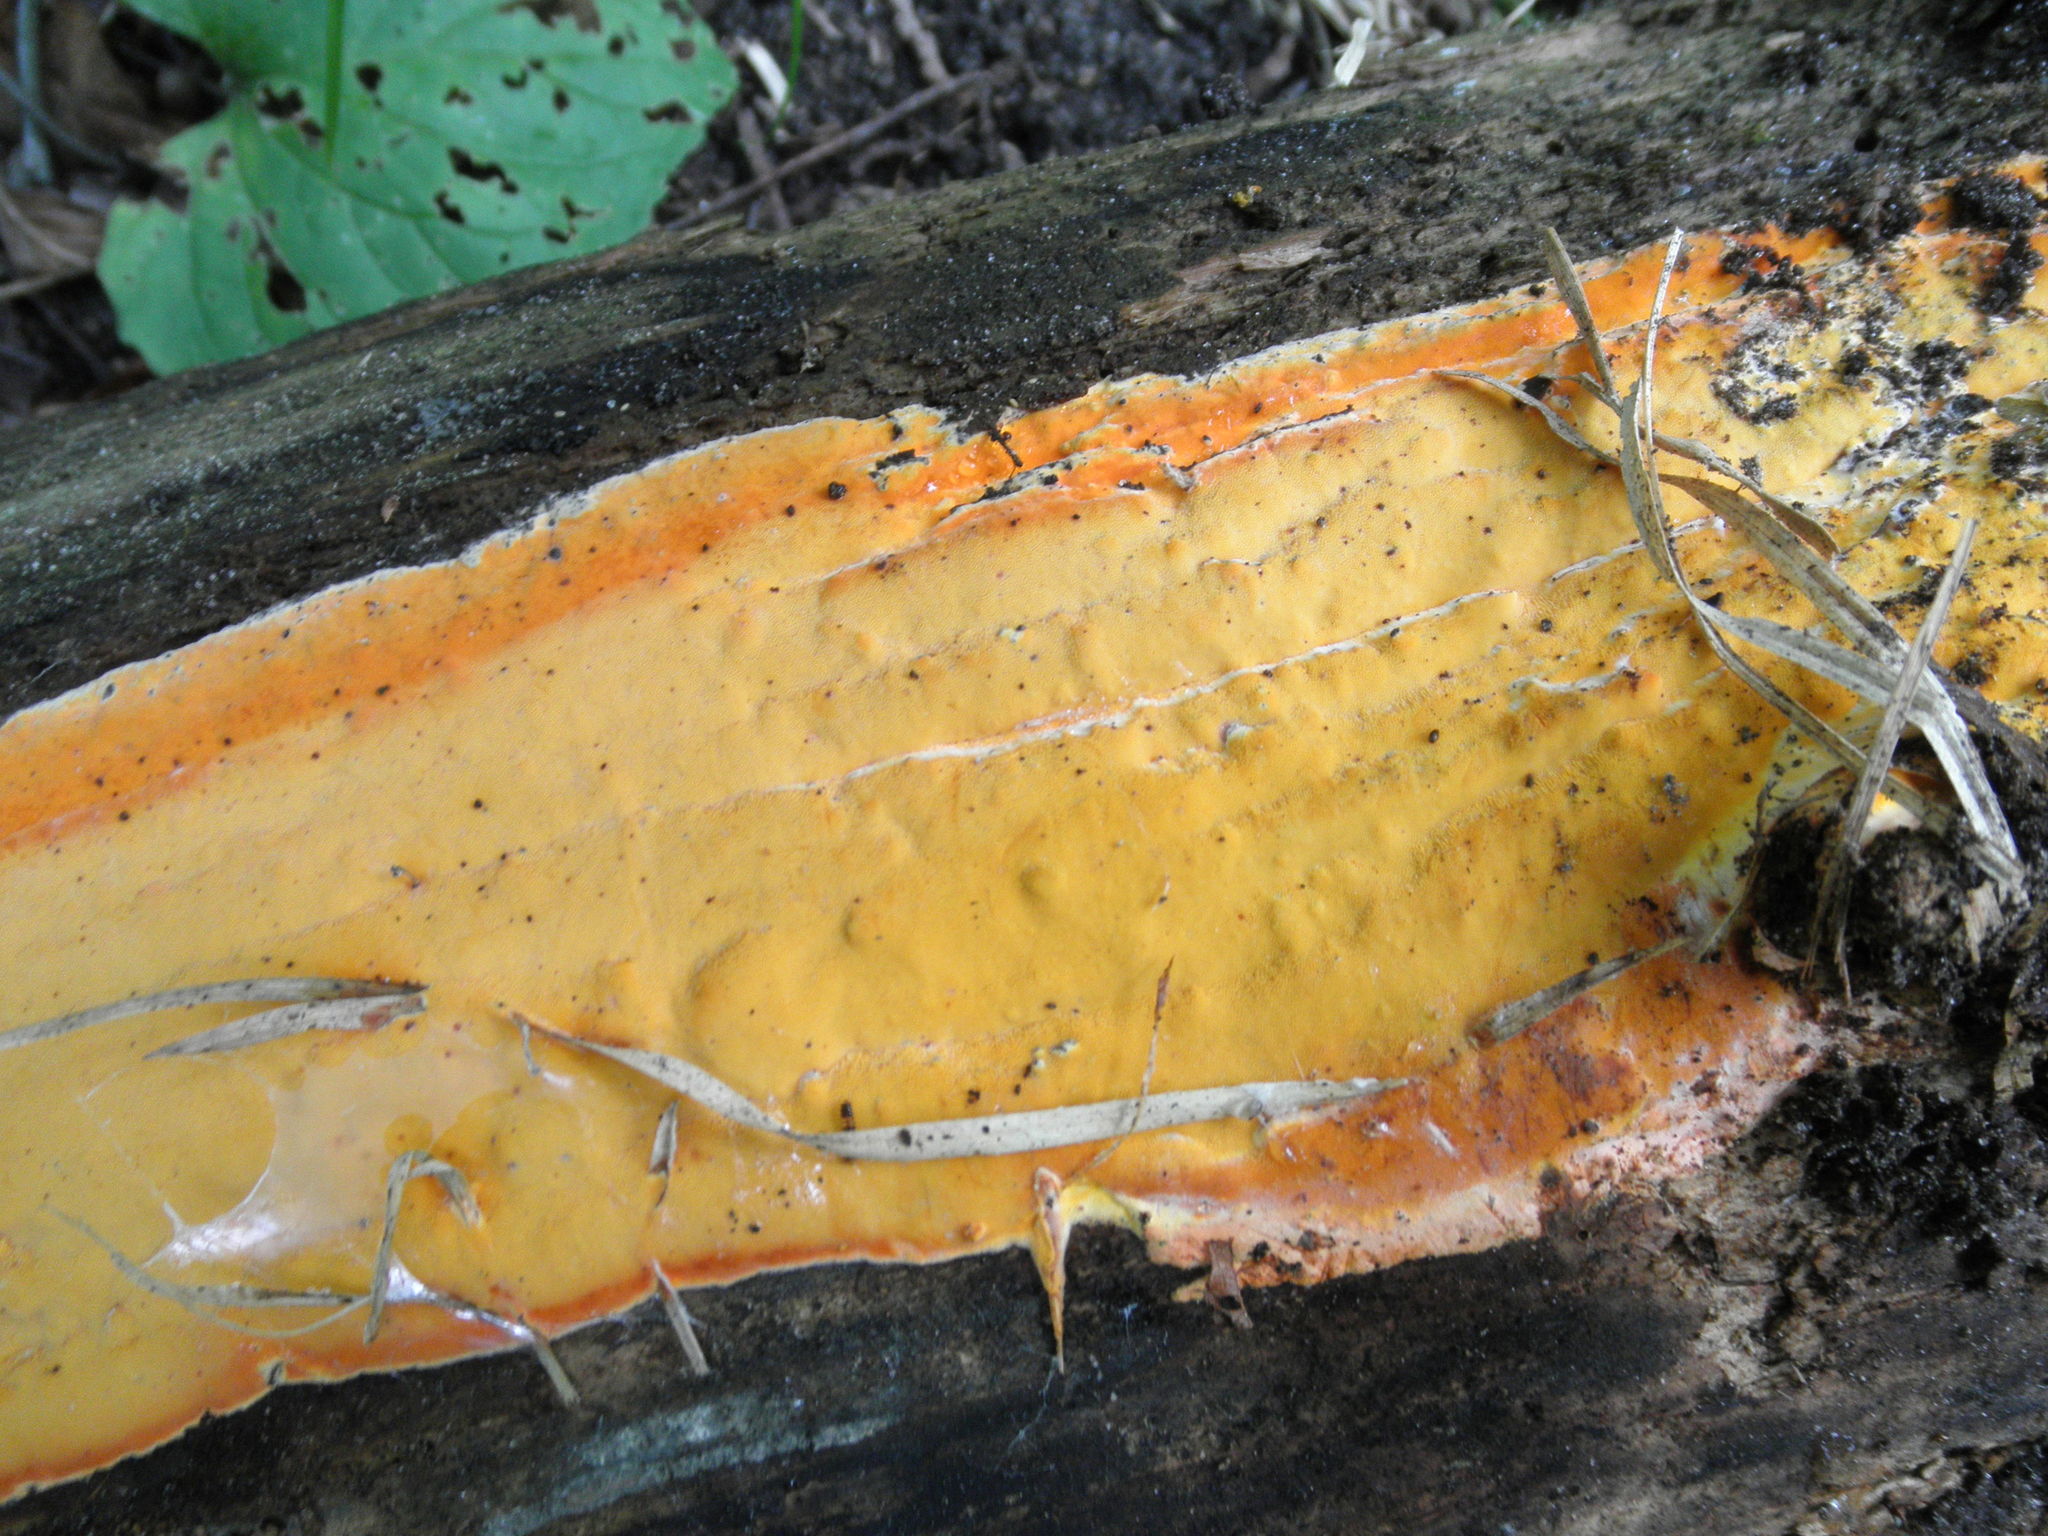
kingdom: Fungi
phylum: Basidiomycota
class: Agaricomycetes
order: Polyporales
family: Irpicaceae
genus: Ceriporia
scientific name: Ceriporia spissa
